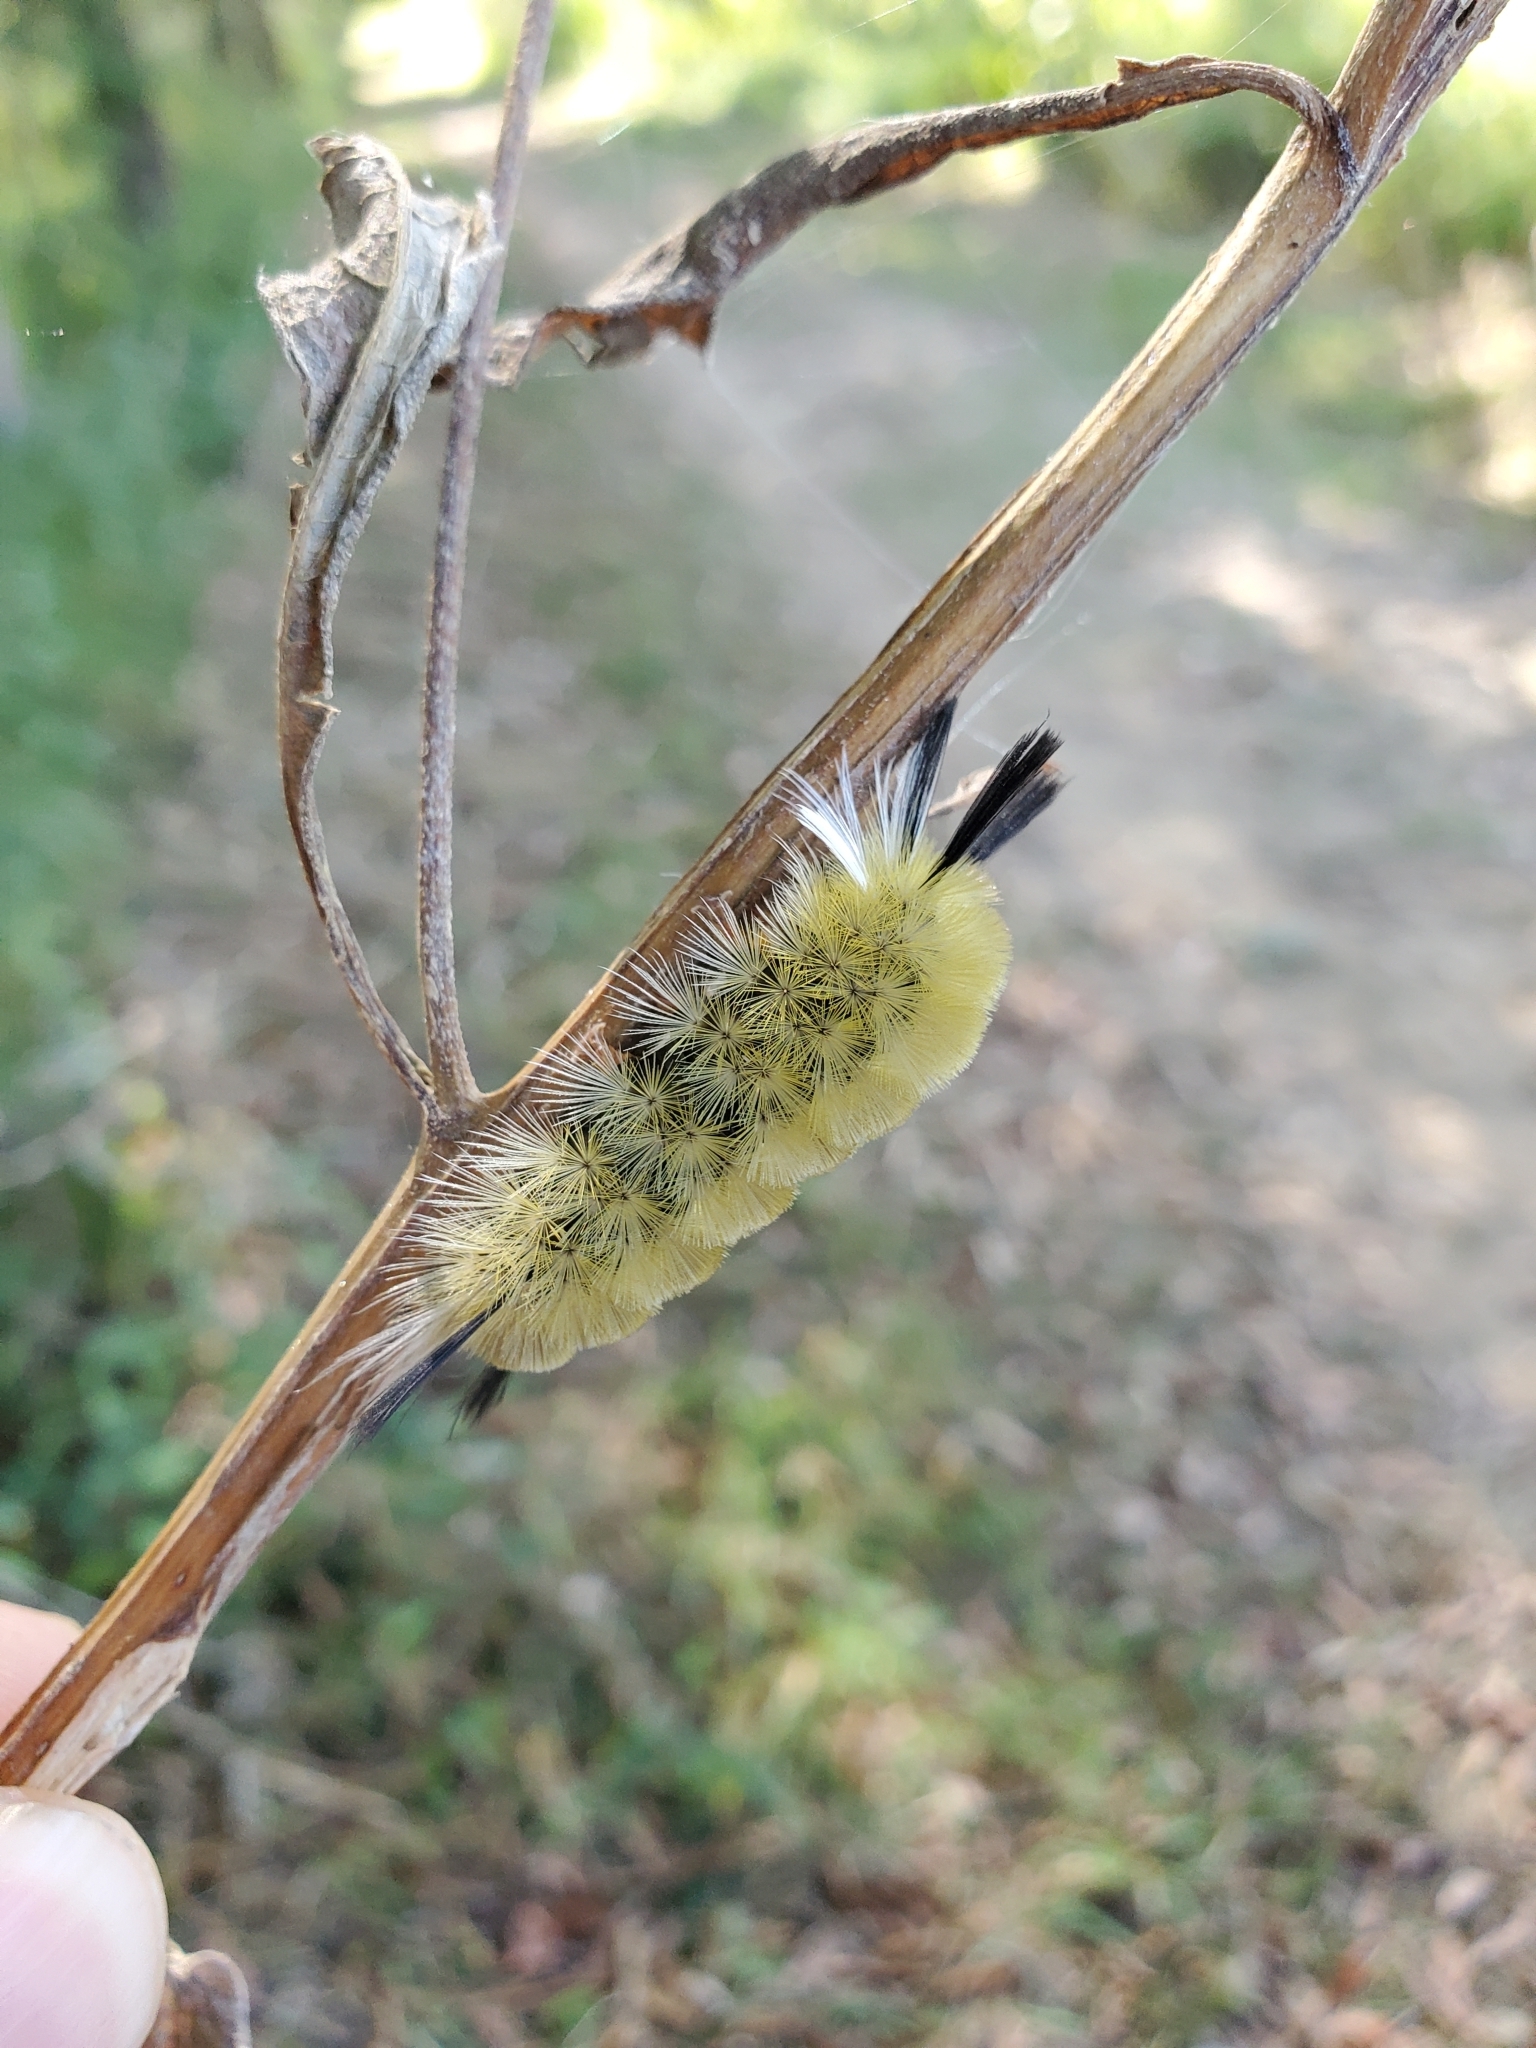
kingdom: Animalia
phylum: Arthropoda
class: Insecta
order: Lepidoptera
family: Erebidae
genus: Halysidota
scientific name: Halysidota tessellaris
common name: Banded tussock moth
